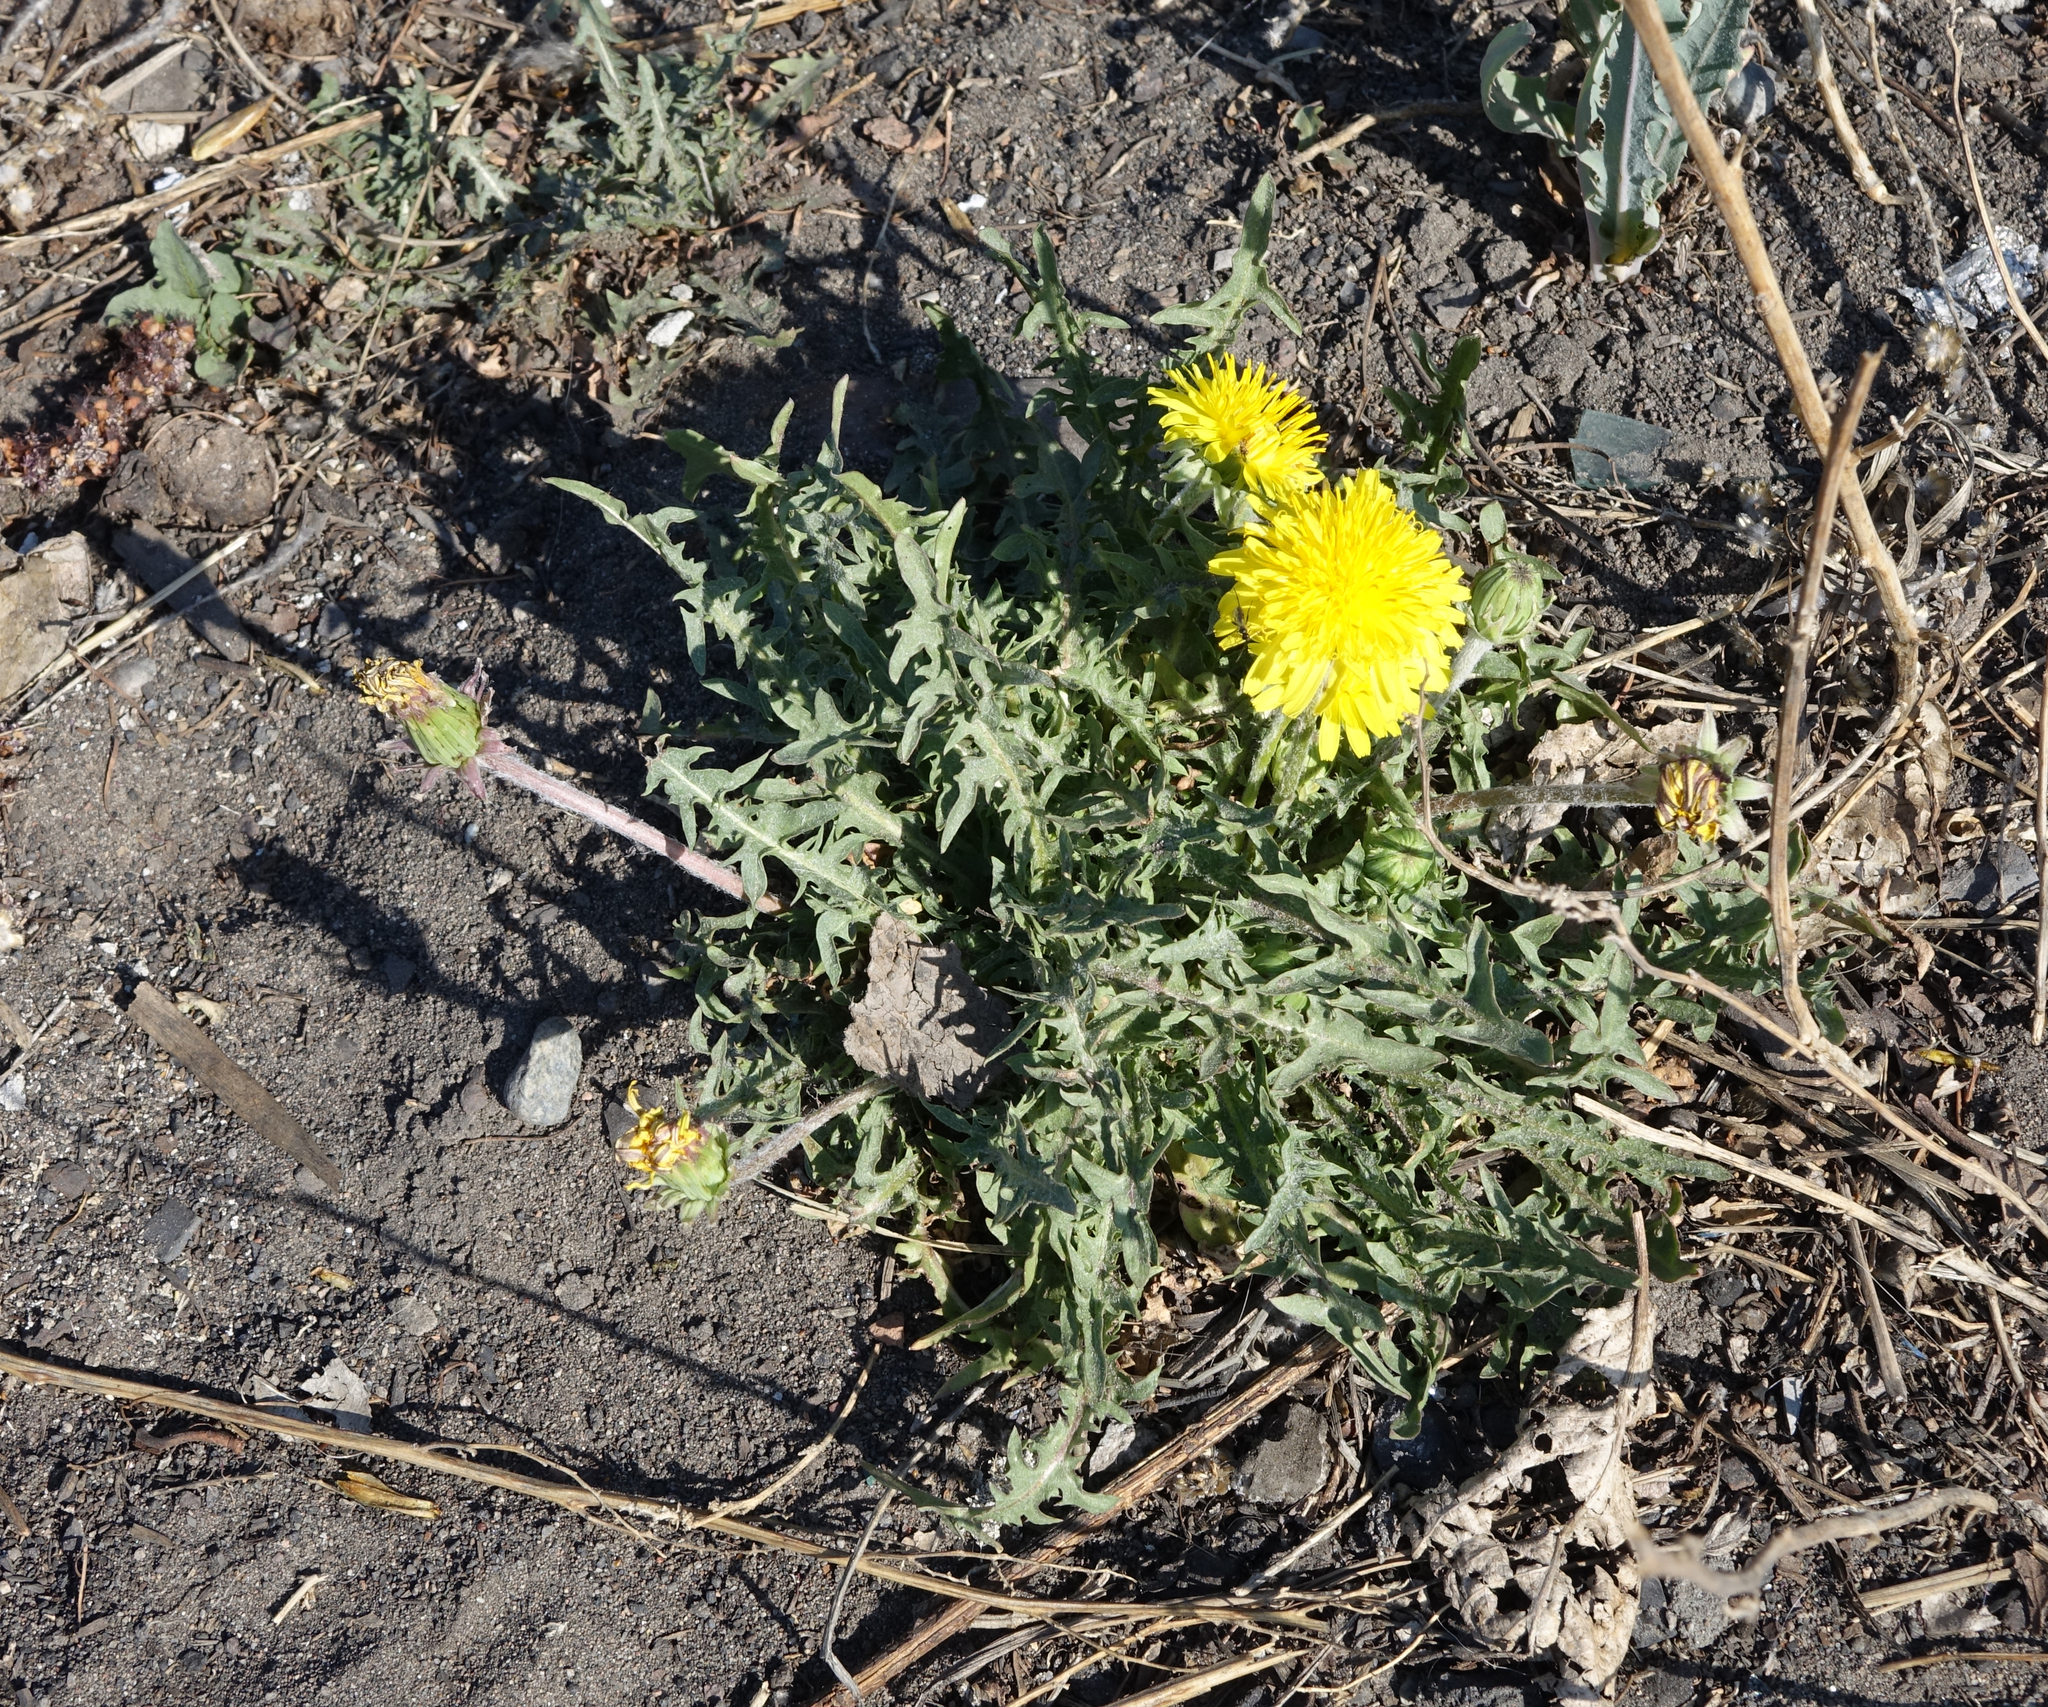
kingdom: Plantae
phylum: Tracheophyta
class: Magnoliopsida
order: Asterales
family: Asteraceae
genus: Taraxacum
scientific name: Taraxacum officinale
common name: Common dandelion
